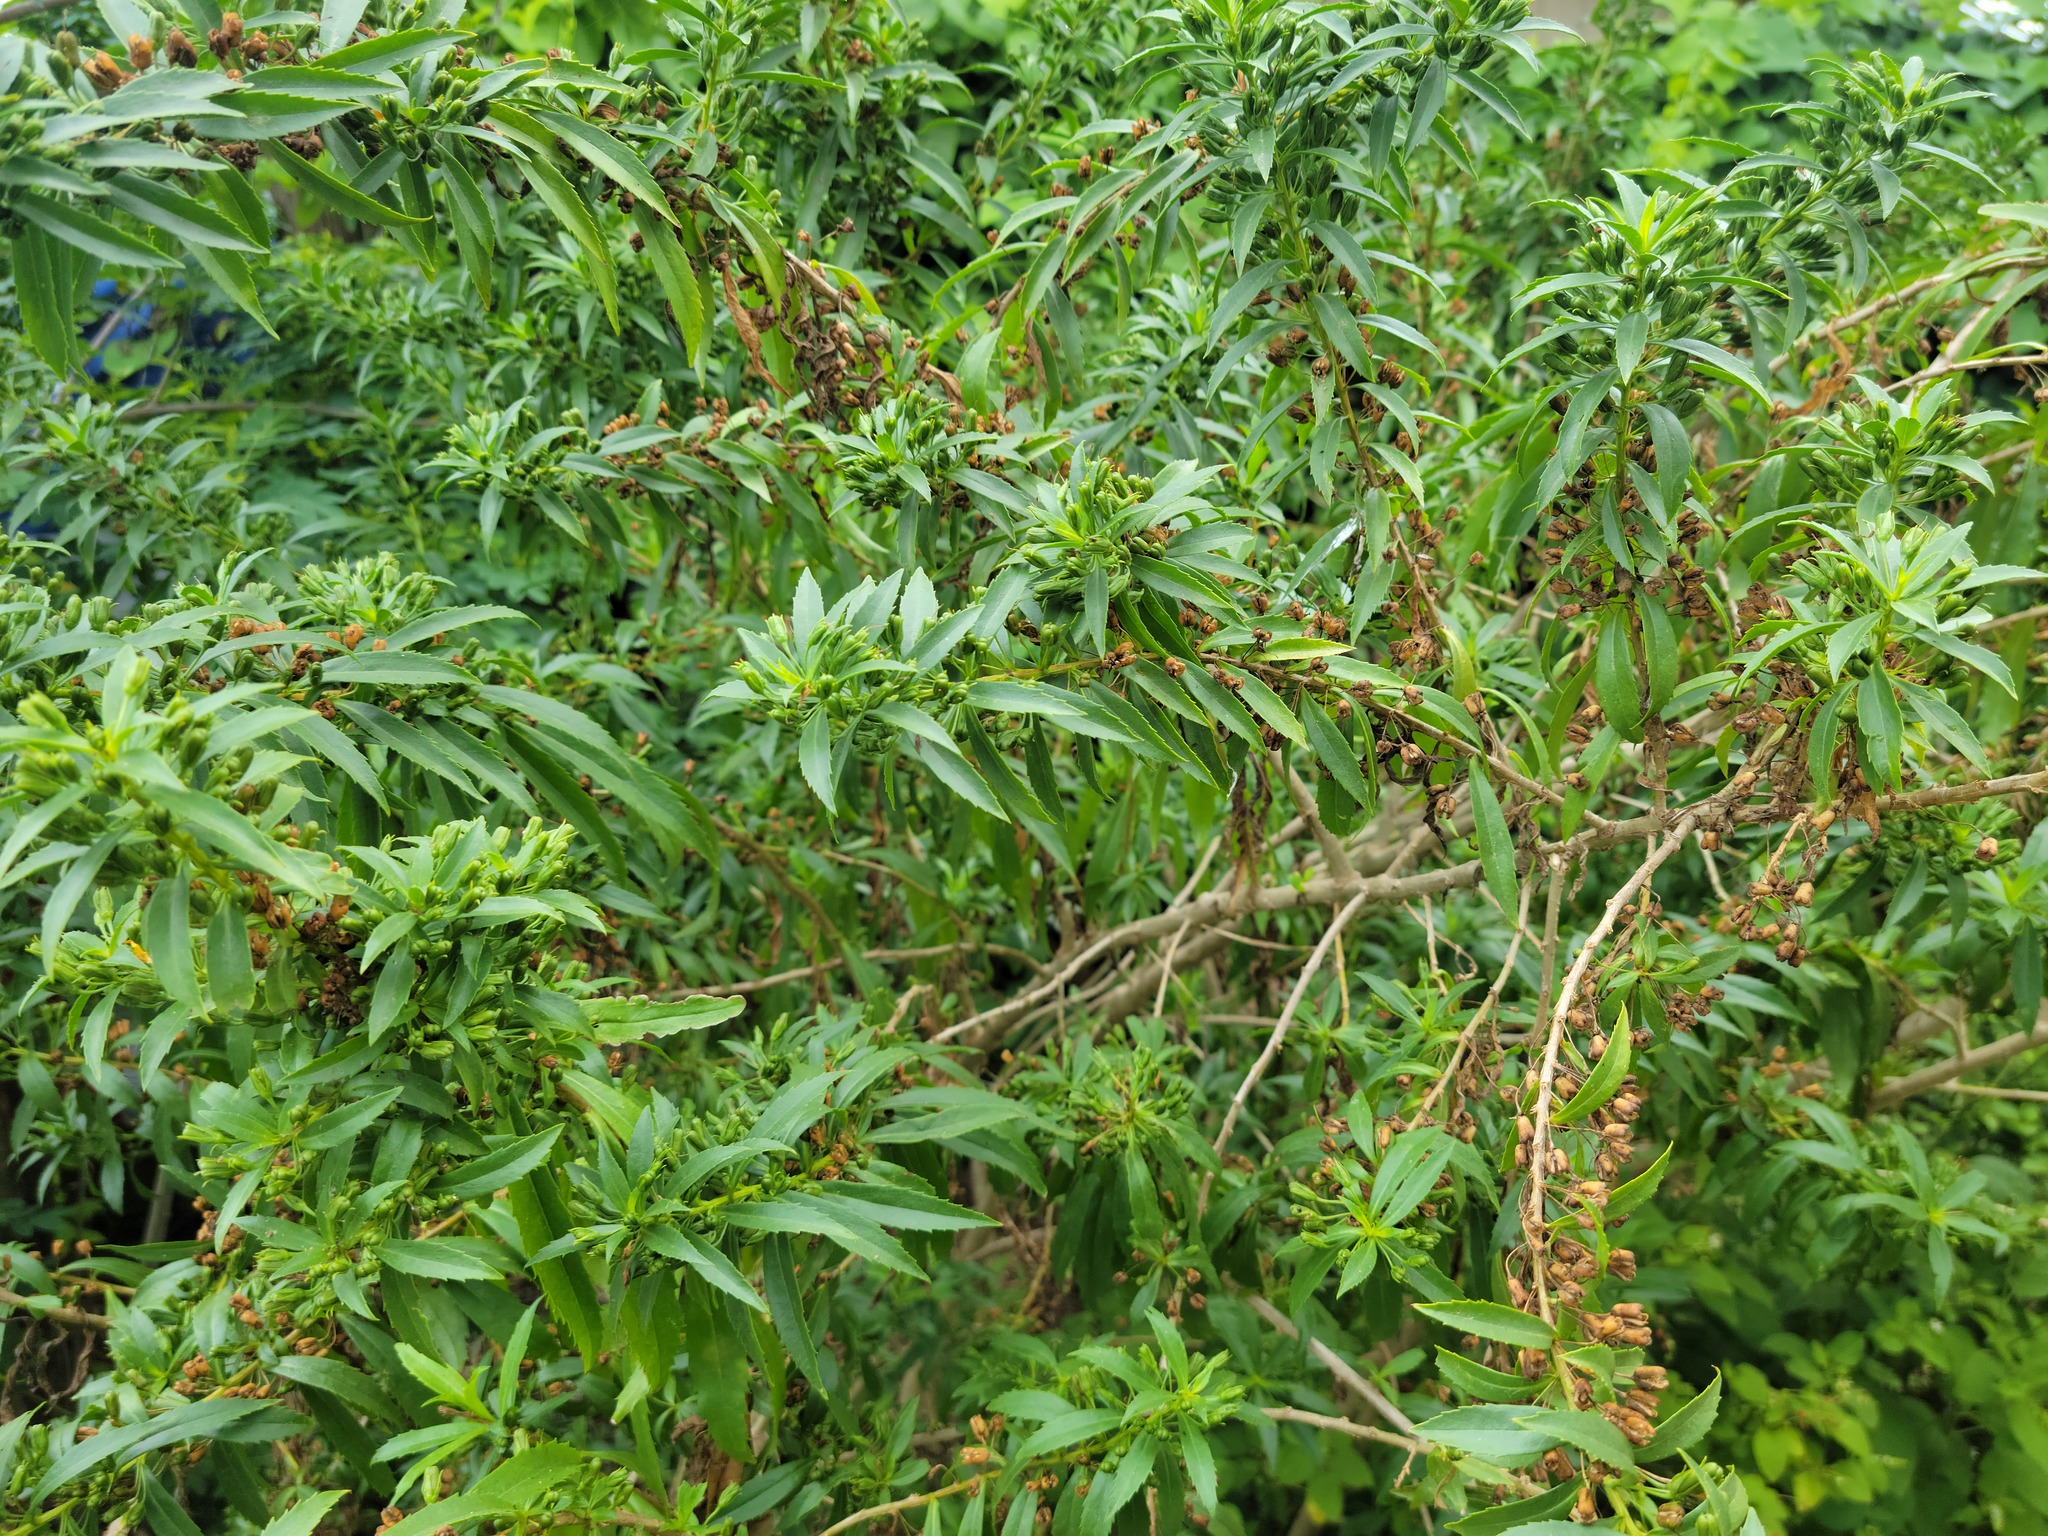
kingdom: Plantae
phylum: Tracheophyta
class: Magnoliopsida
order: Lamiales
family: Scrophulariaceae
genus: Capraria
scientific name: Capraria mexicana
